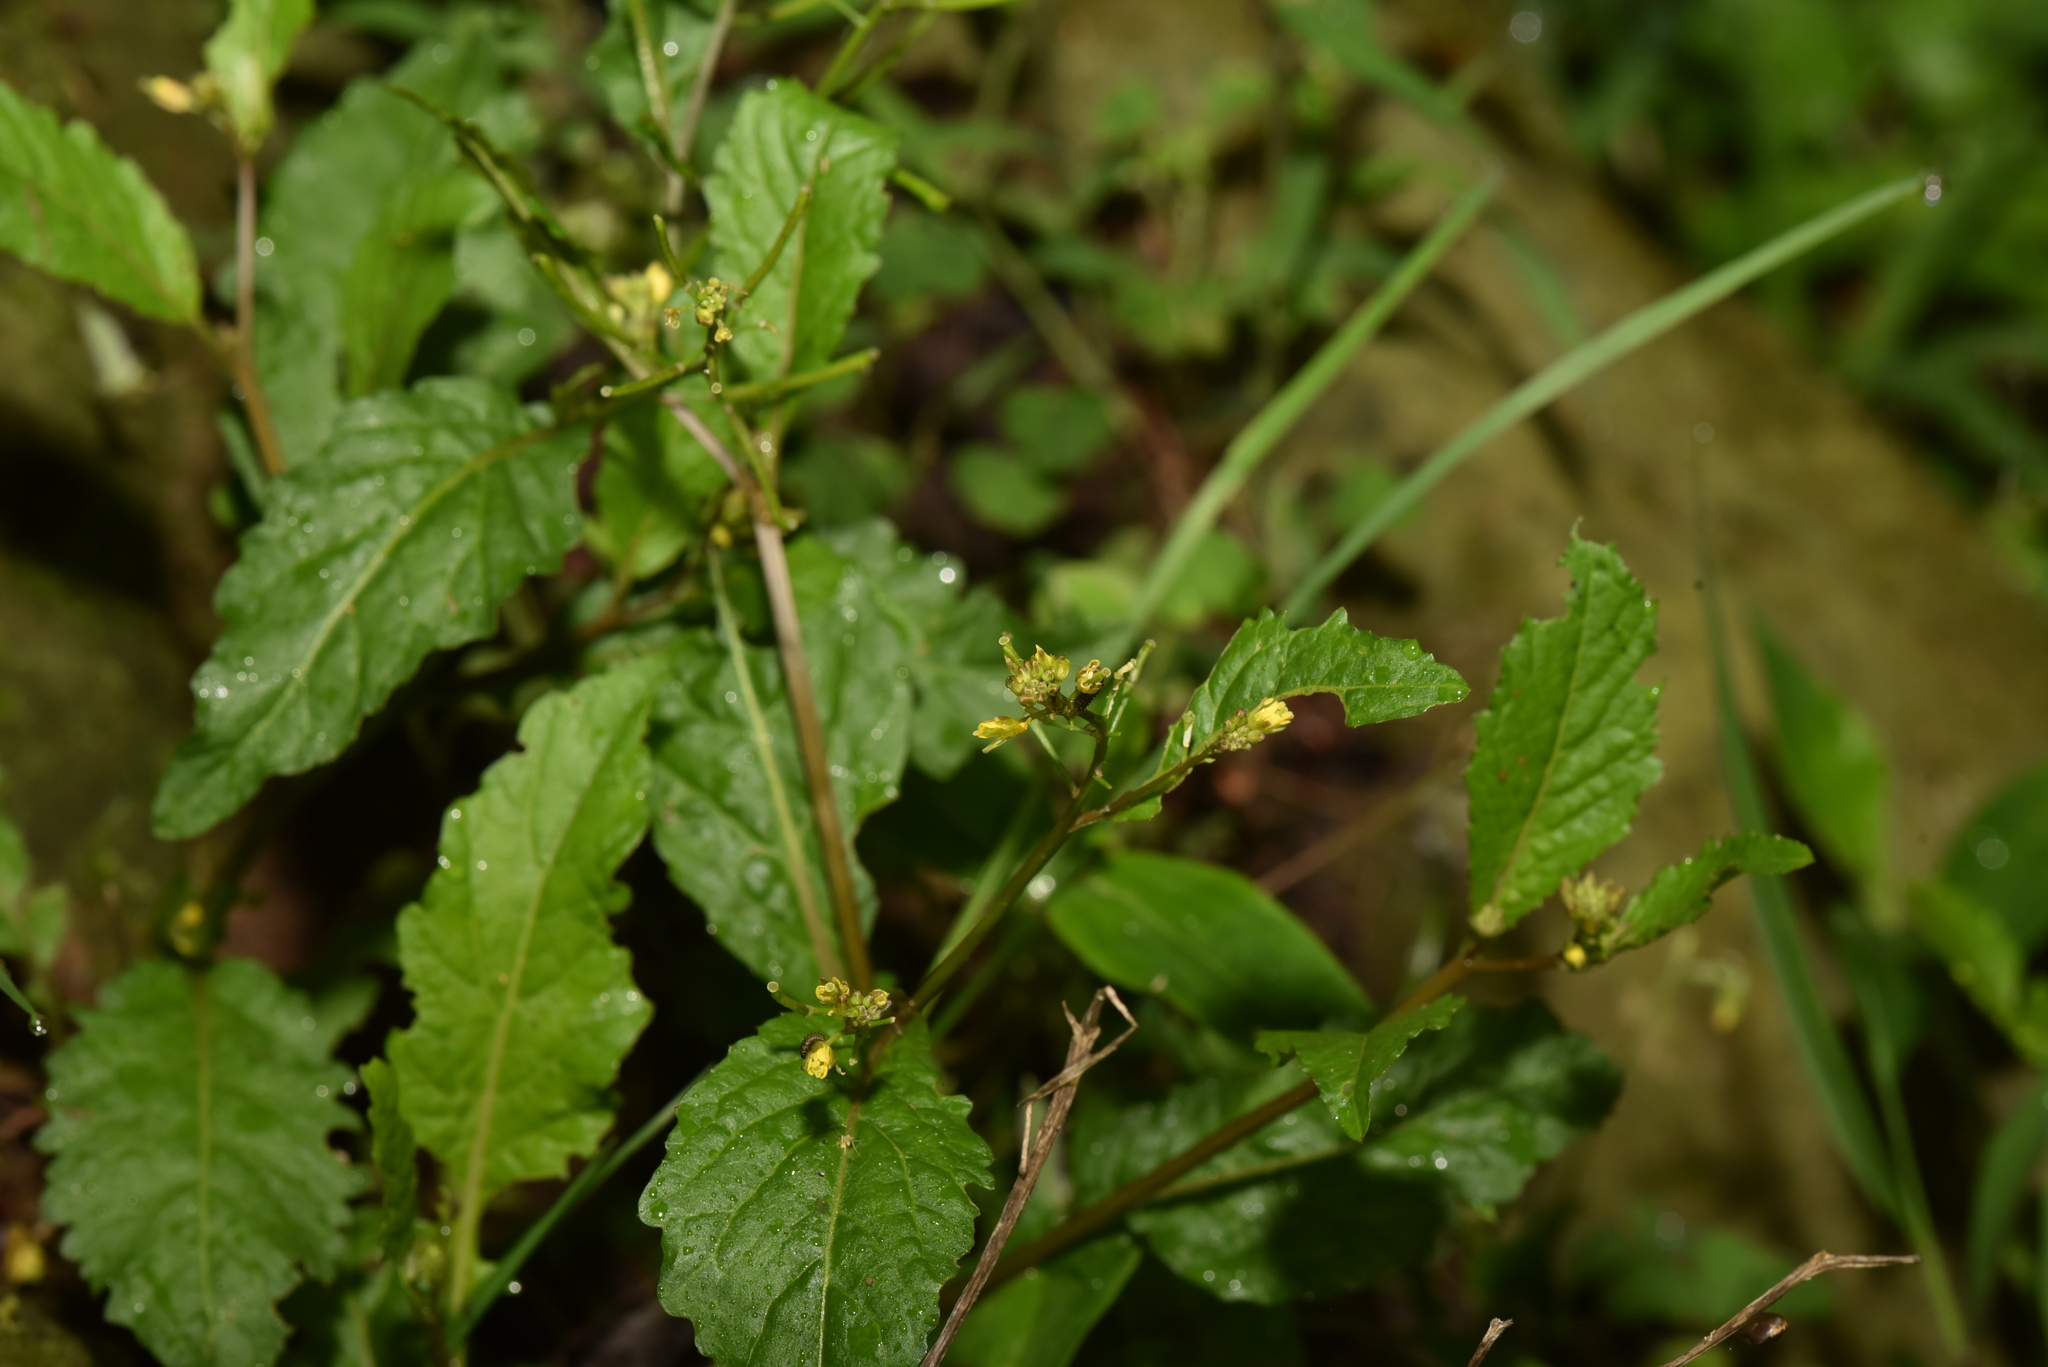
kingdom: Plantae
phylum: Tracheophyta
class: Magnoliopsida
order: Brassicales
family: Brassicaceae
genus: Rorippa
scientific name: Rorippa indica
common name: Variableleaf yellowcress
